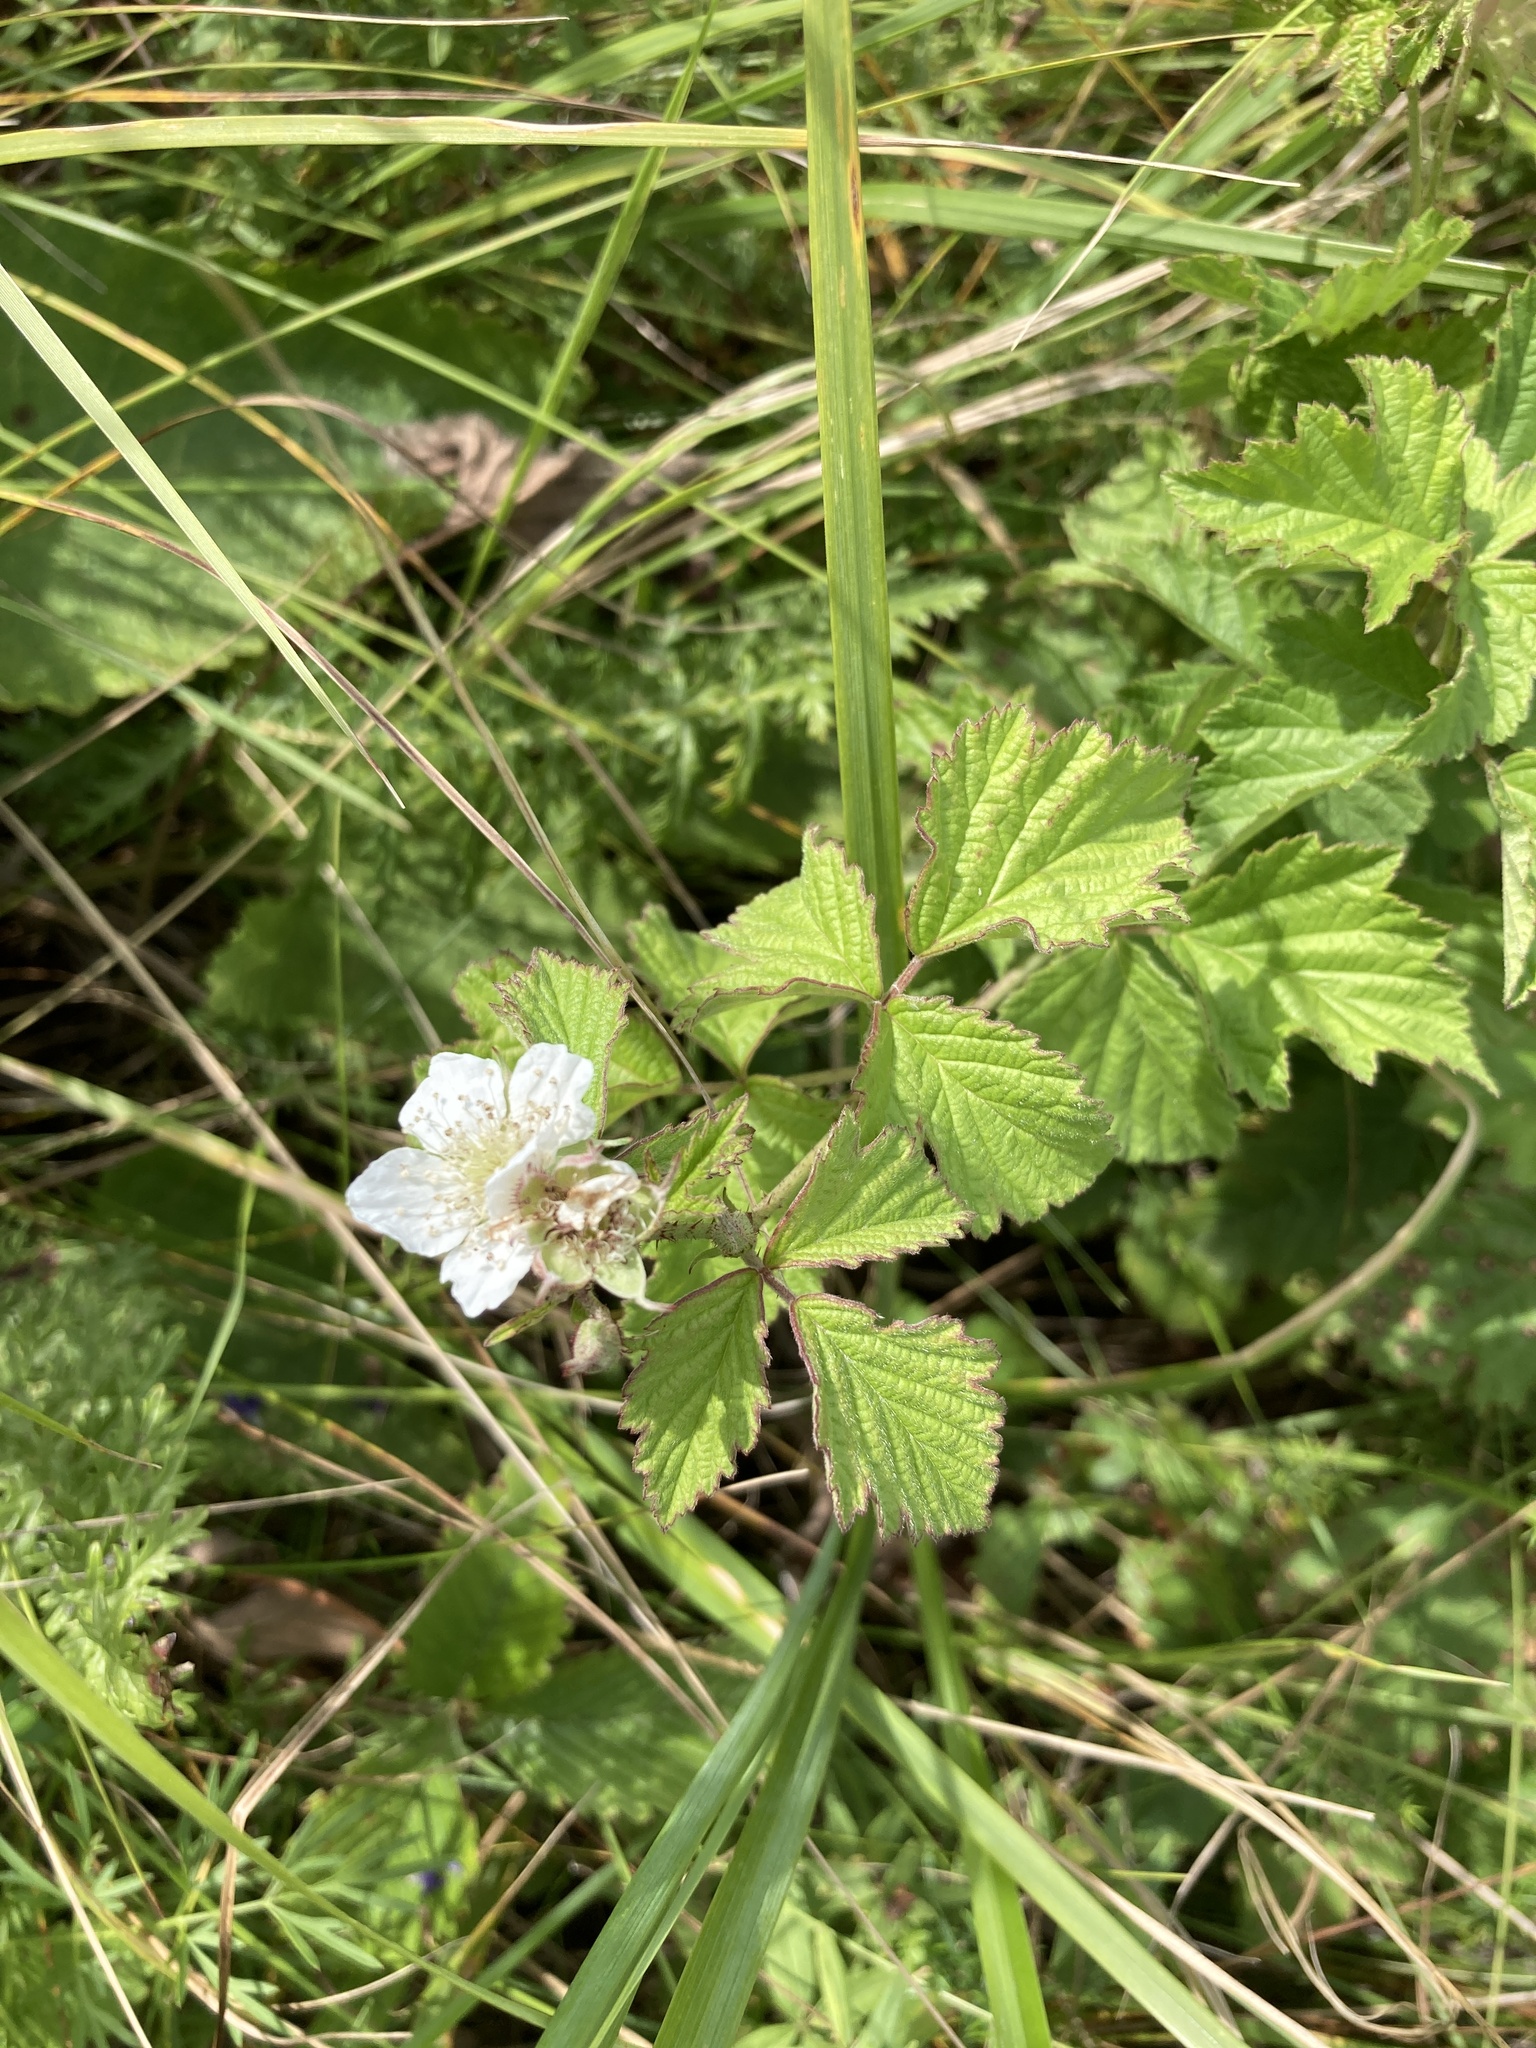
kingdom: Plantae
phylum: Tracheophyta
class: Magnoliopsida
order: Rosales
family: Rosaceae
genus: Rubus
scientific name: Rubus caesius
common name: Dewberry
